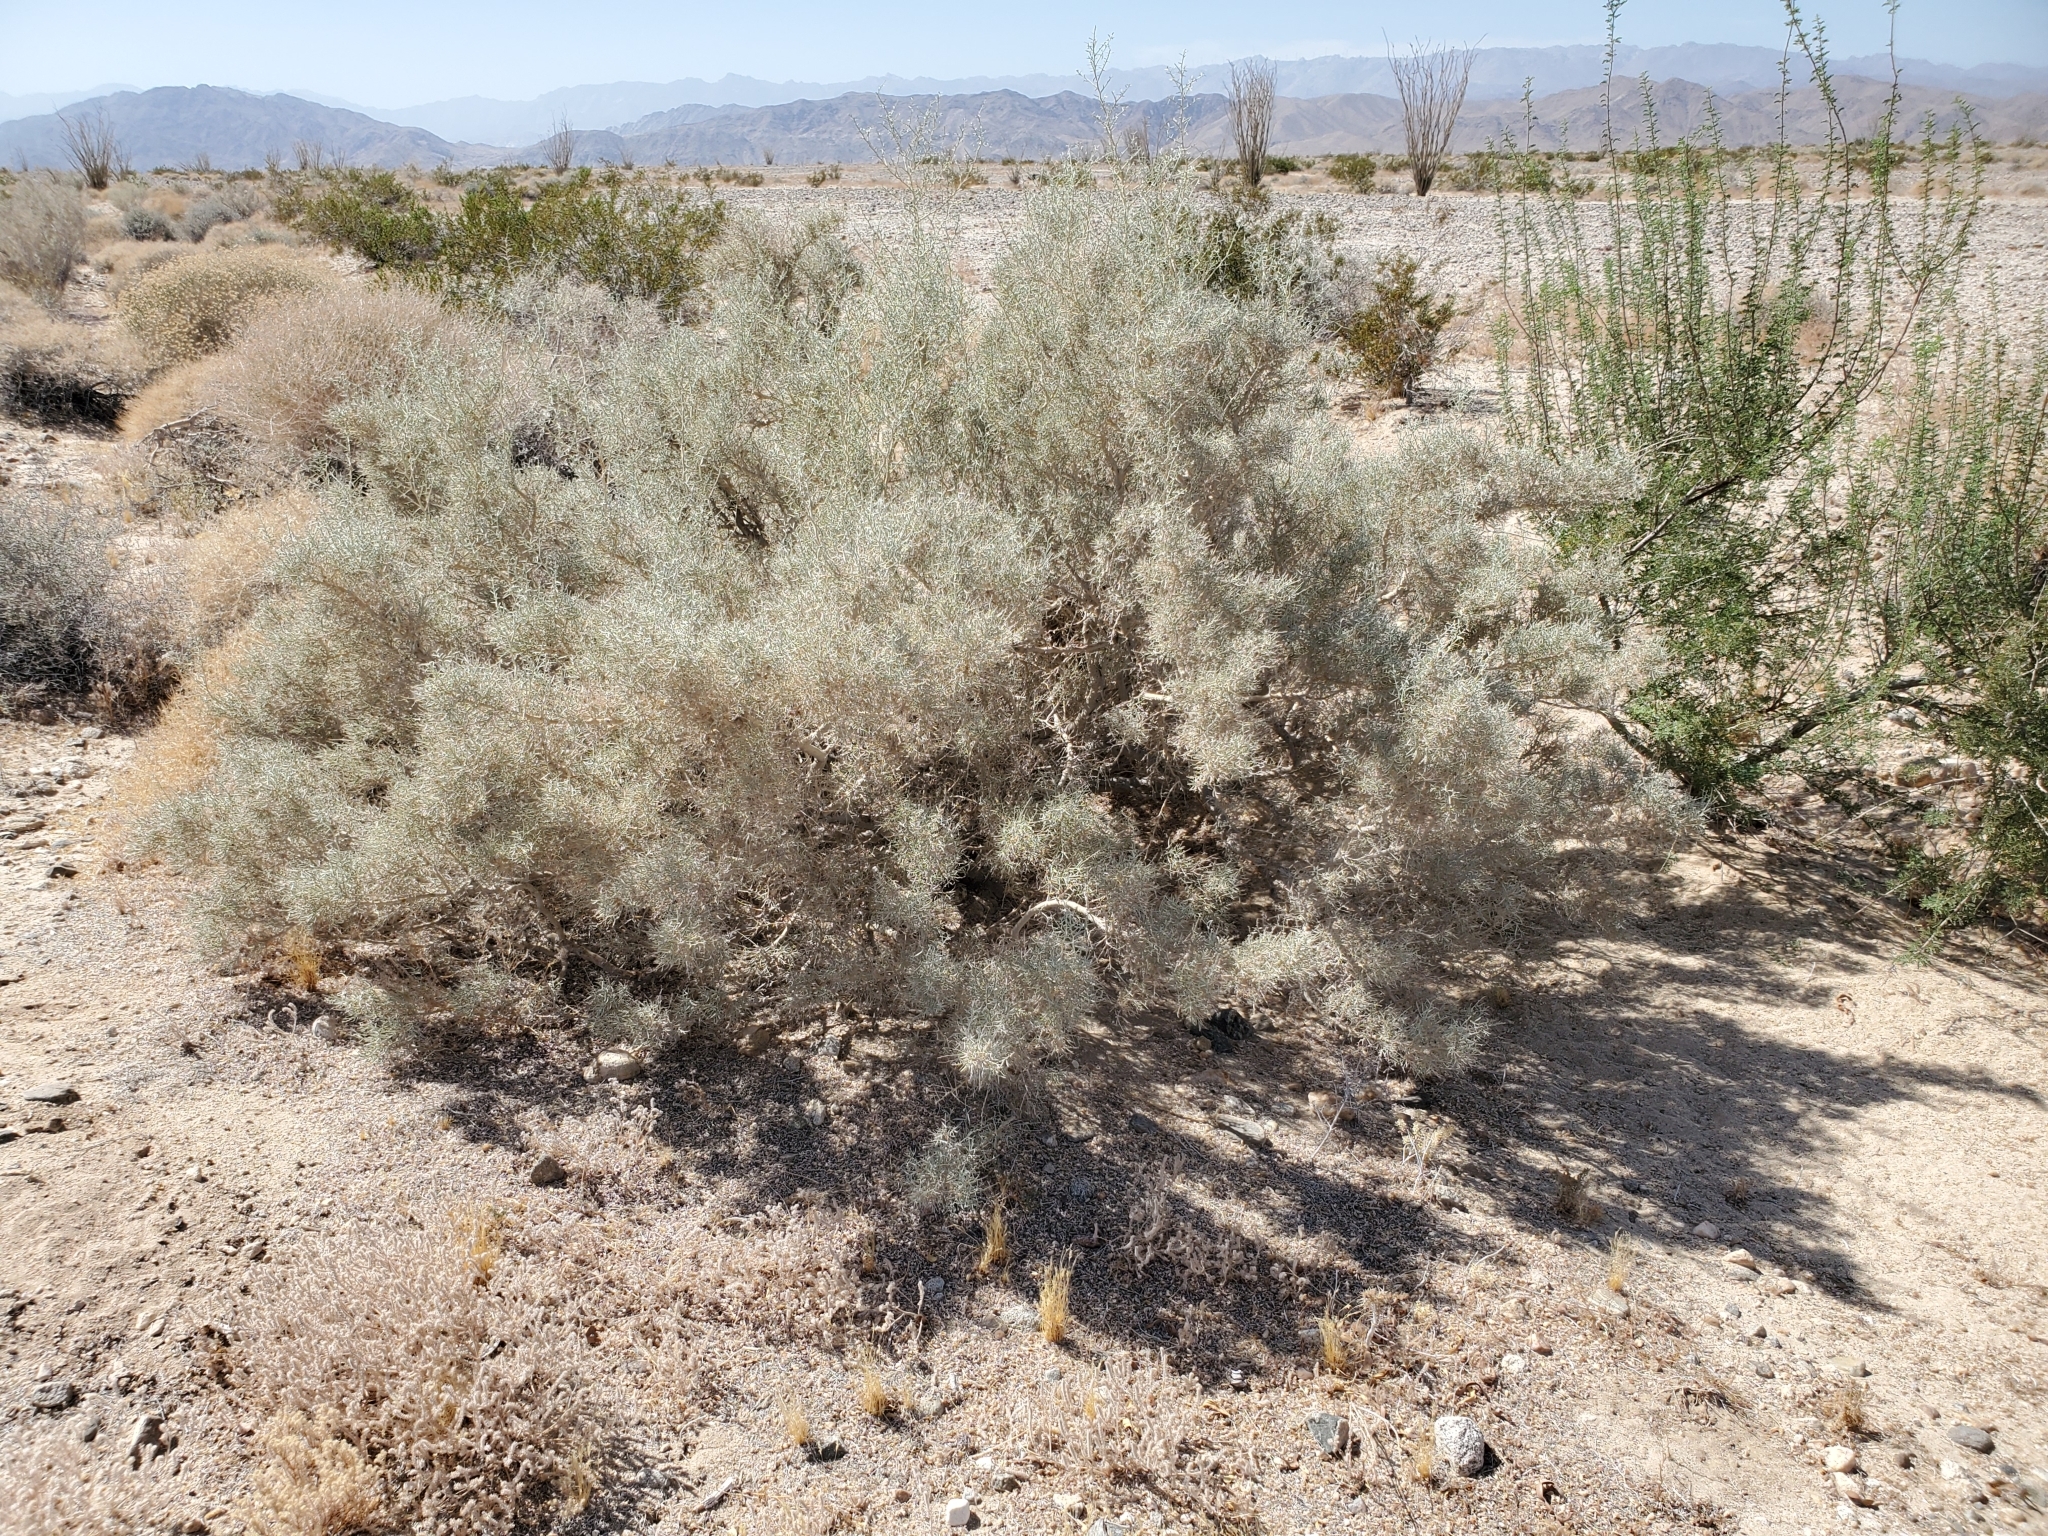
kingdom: Plantae
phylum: Tracheophyta
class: Magnoliopsida
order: Fabales
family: Fabaceae
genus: Psorothamnus
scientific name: Psorothamnus schottii
